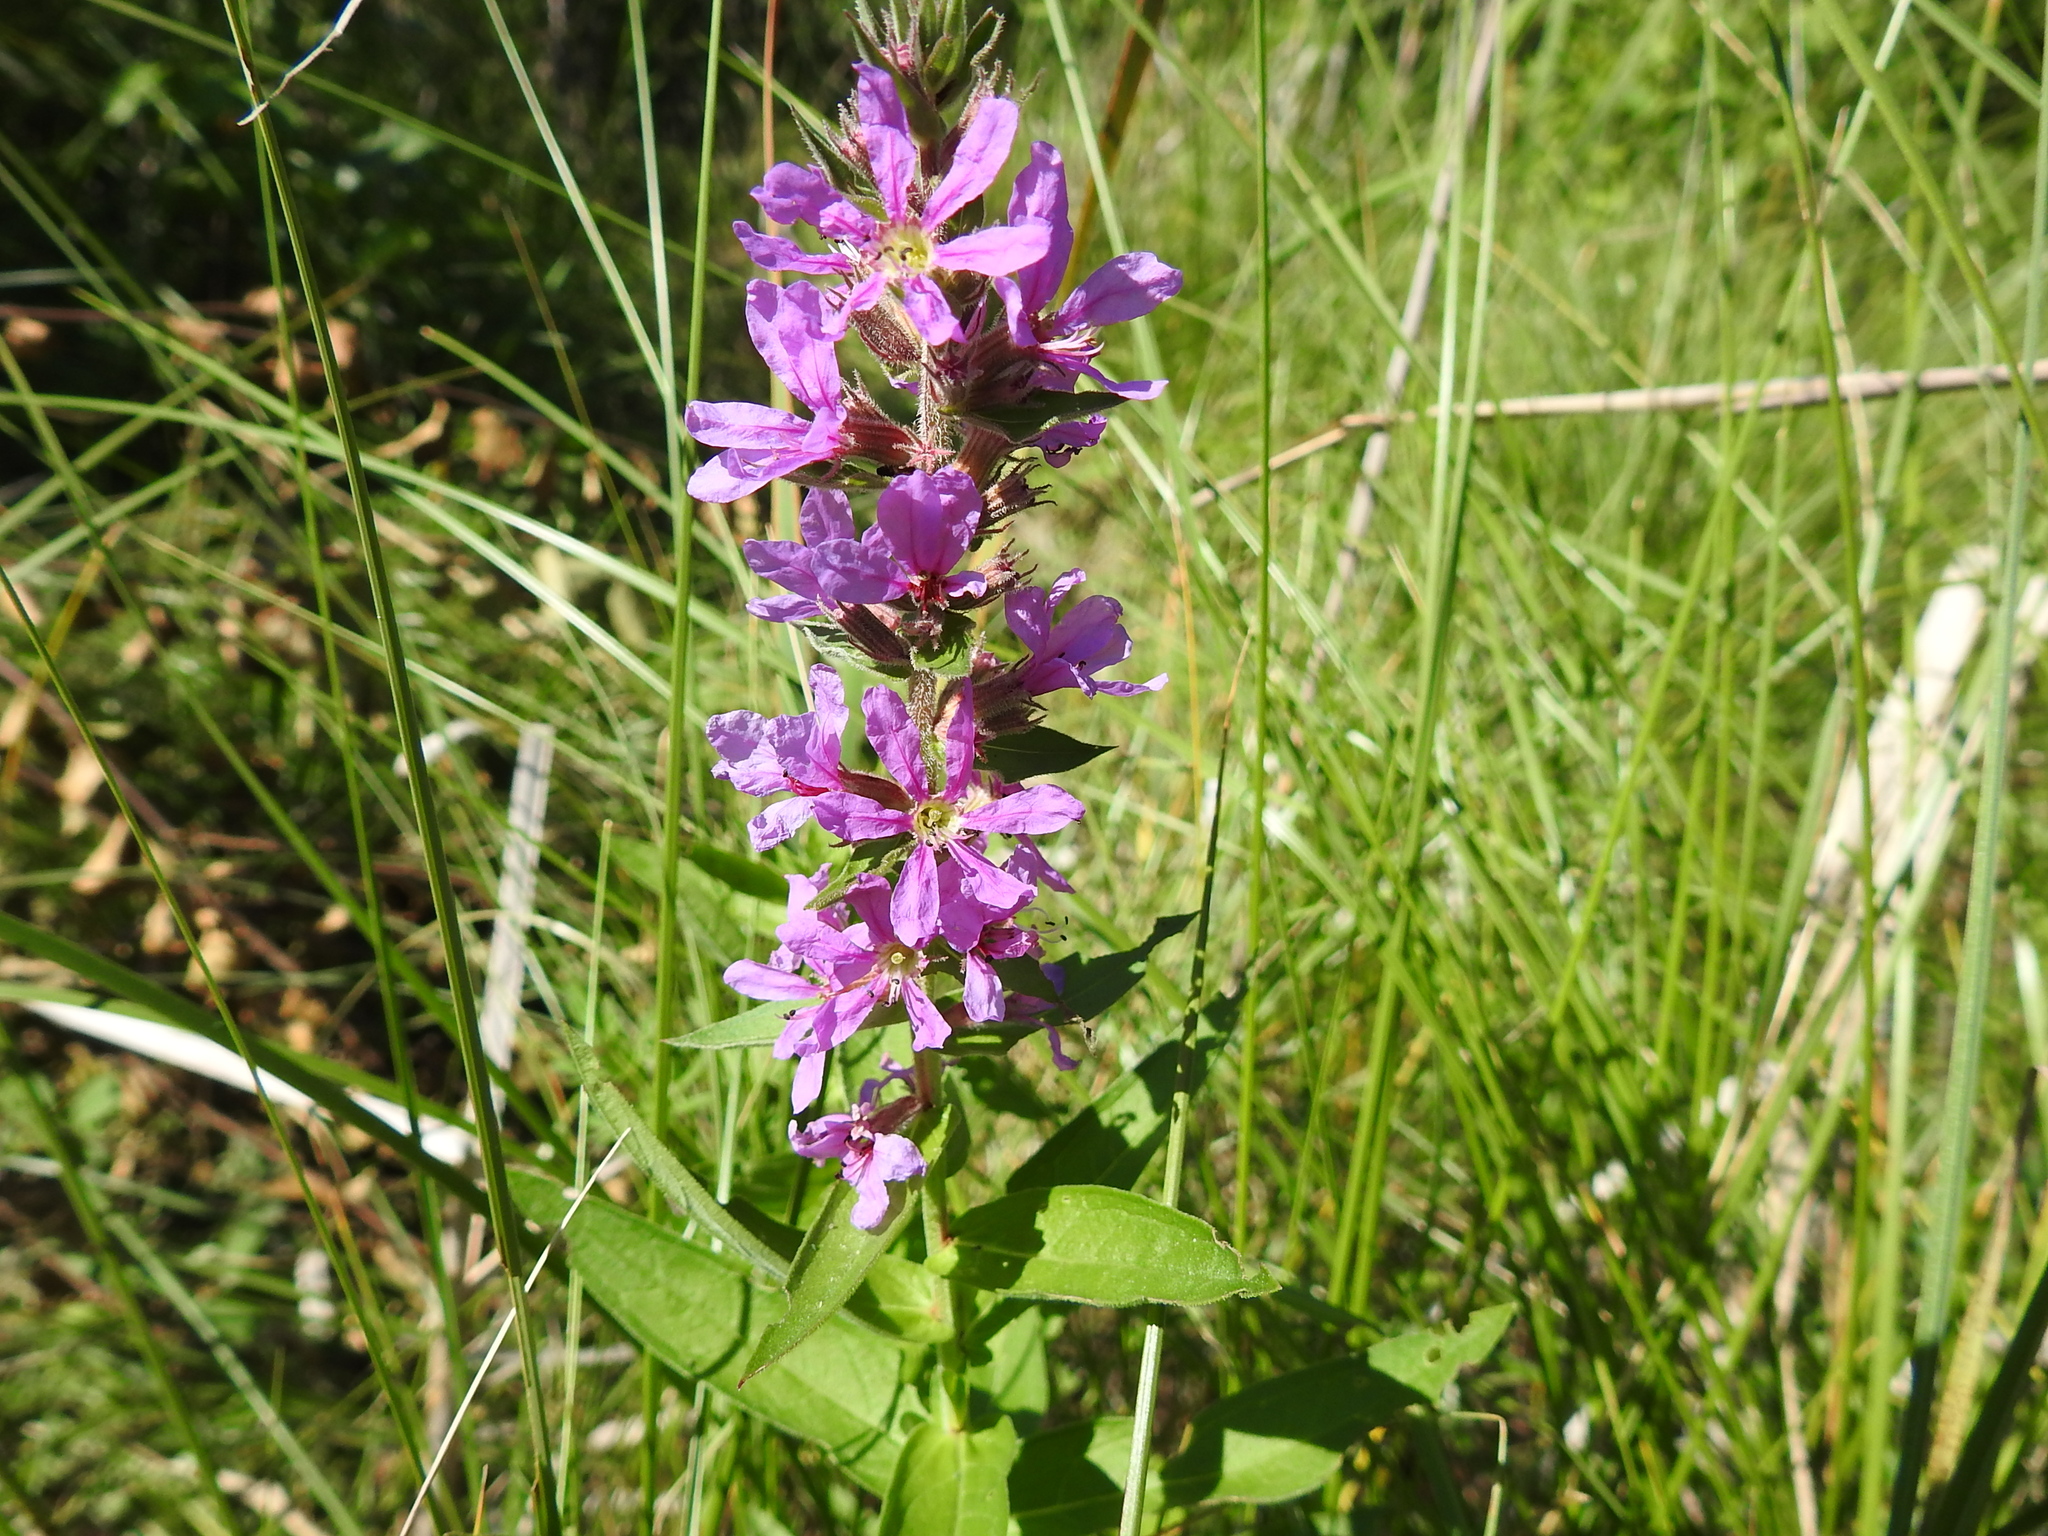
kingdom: Plantae
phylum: Tracheophyta
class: Magnoliopsida
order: Myrtales
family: Lythraceae
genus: Lythrum
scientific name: Lythrum salicaria
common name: Purple loosestrife
